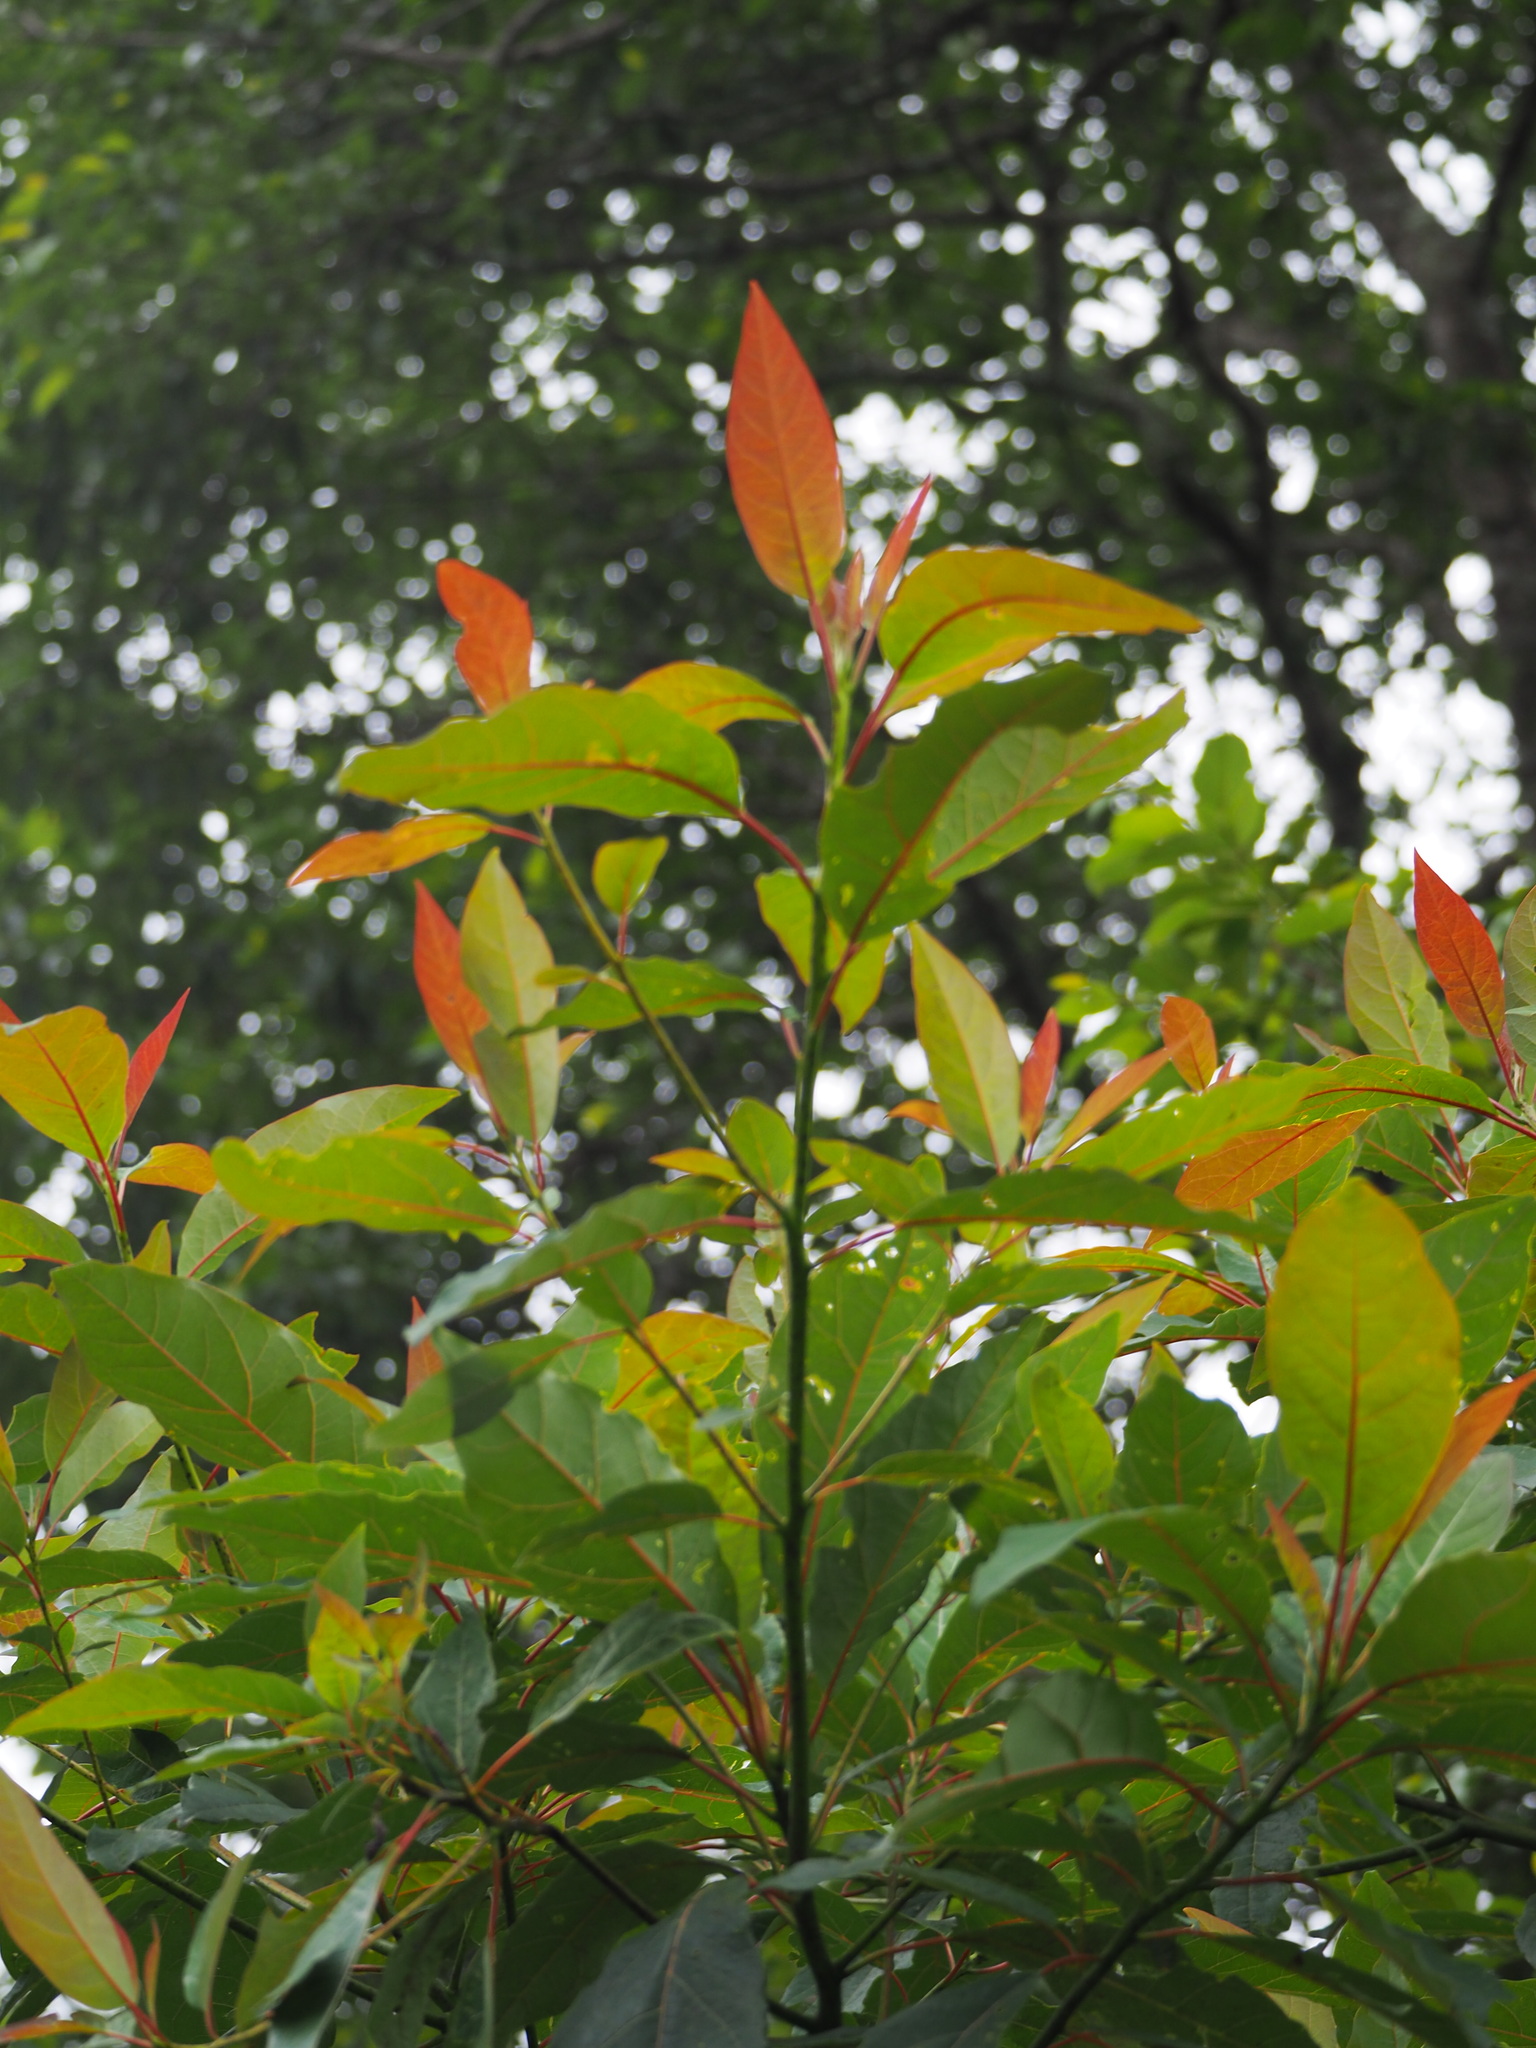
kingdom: Plantae
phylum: Tracheophyta
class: Magnoliopsida
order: Laurales
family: Lauraceae
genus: Sassafras
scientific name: Sassafras randaiense
